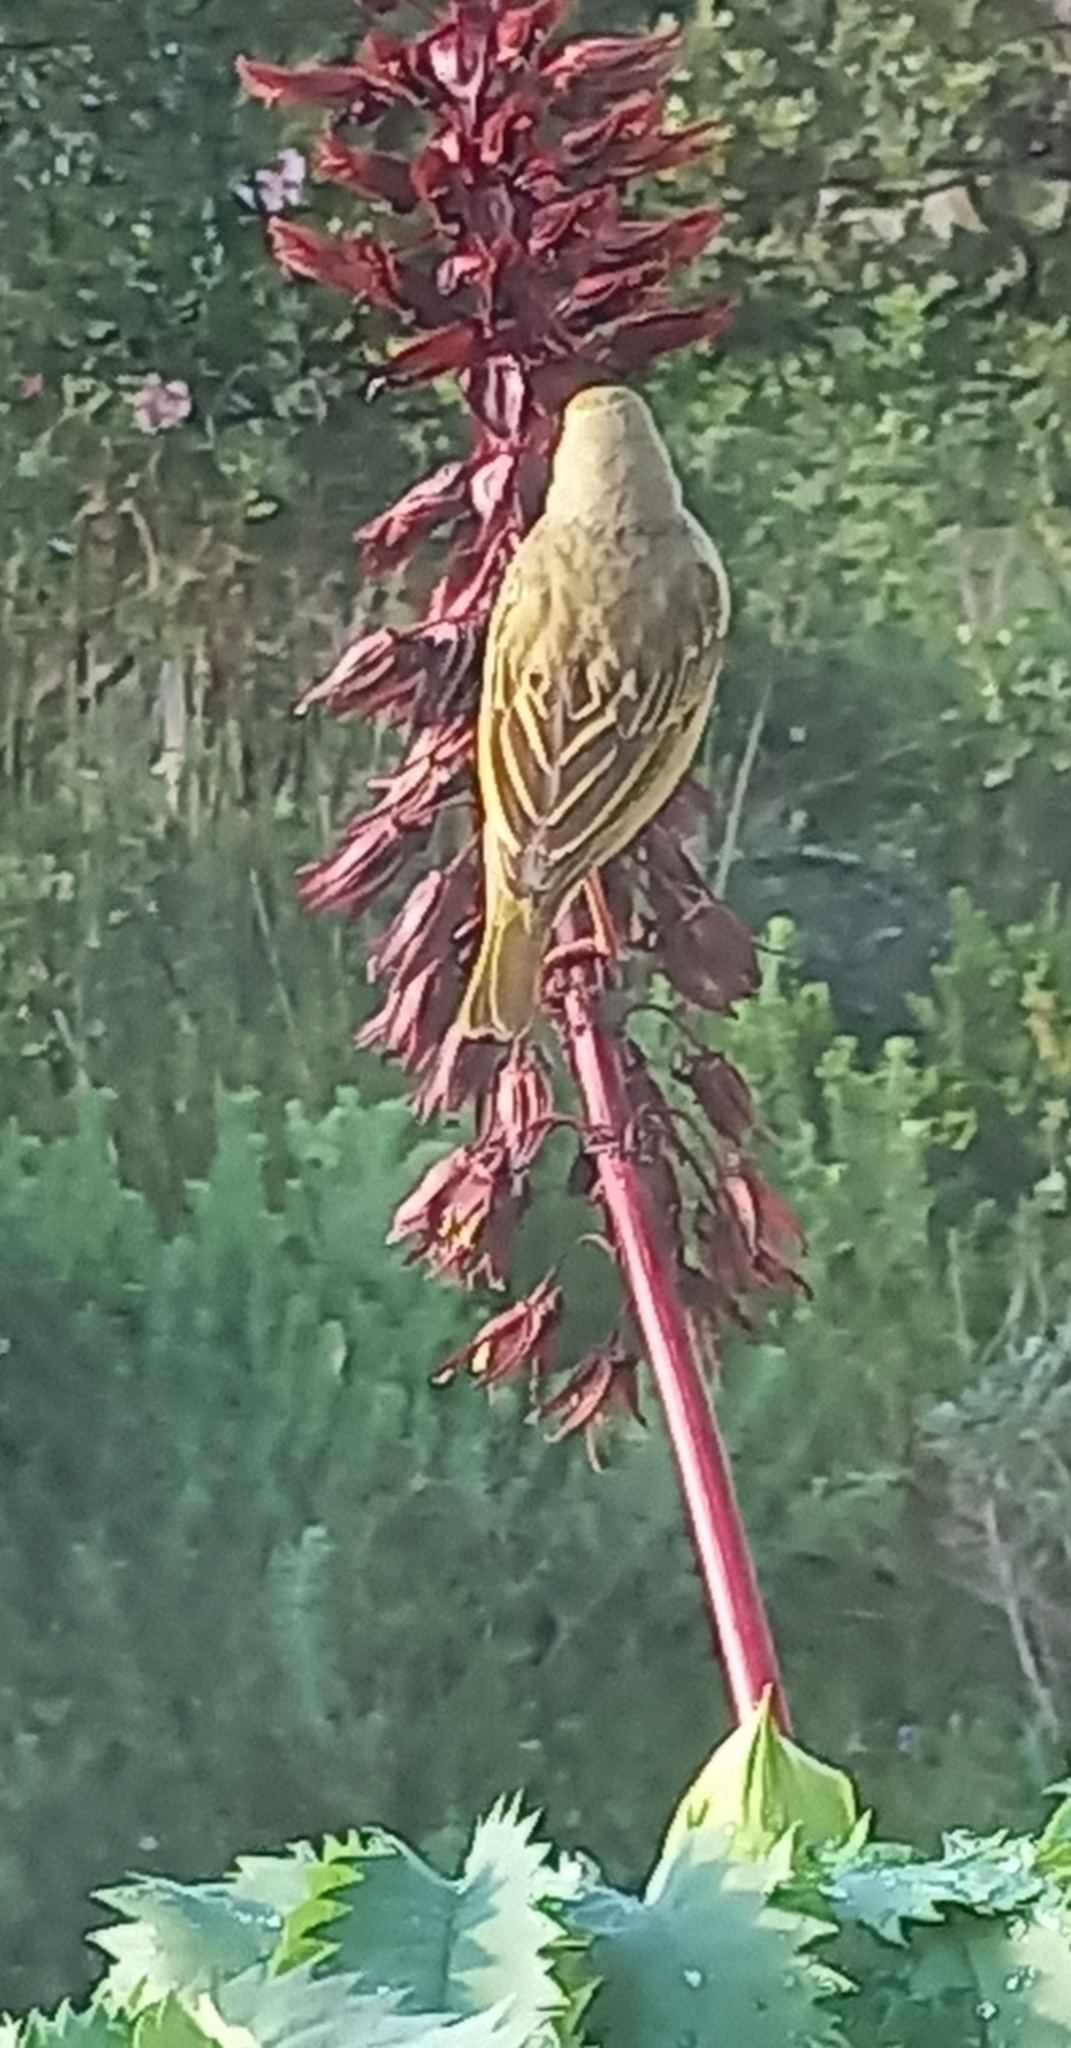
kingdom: Animalia
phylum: Chordata
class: Aves
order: Passeriformes
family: Ploceidae
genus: Ploceus
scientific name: Ploceus capensis
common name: Cape weaver
